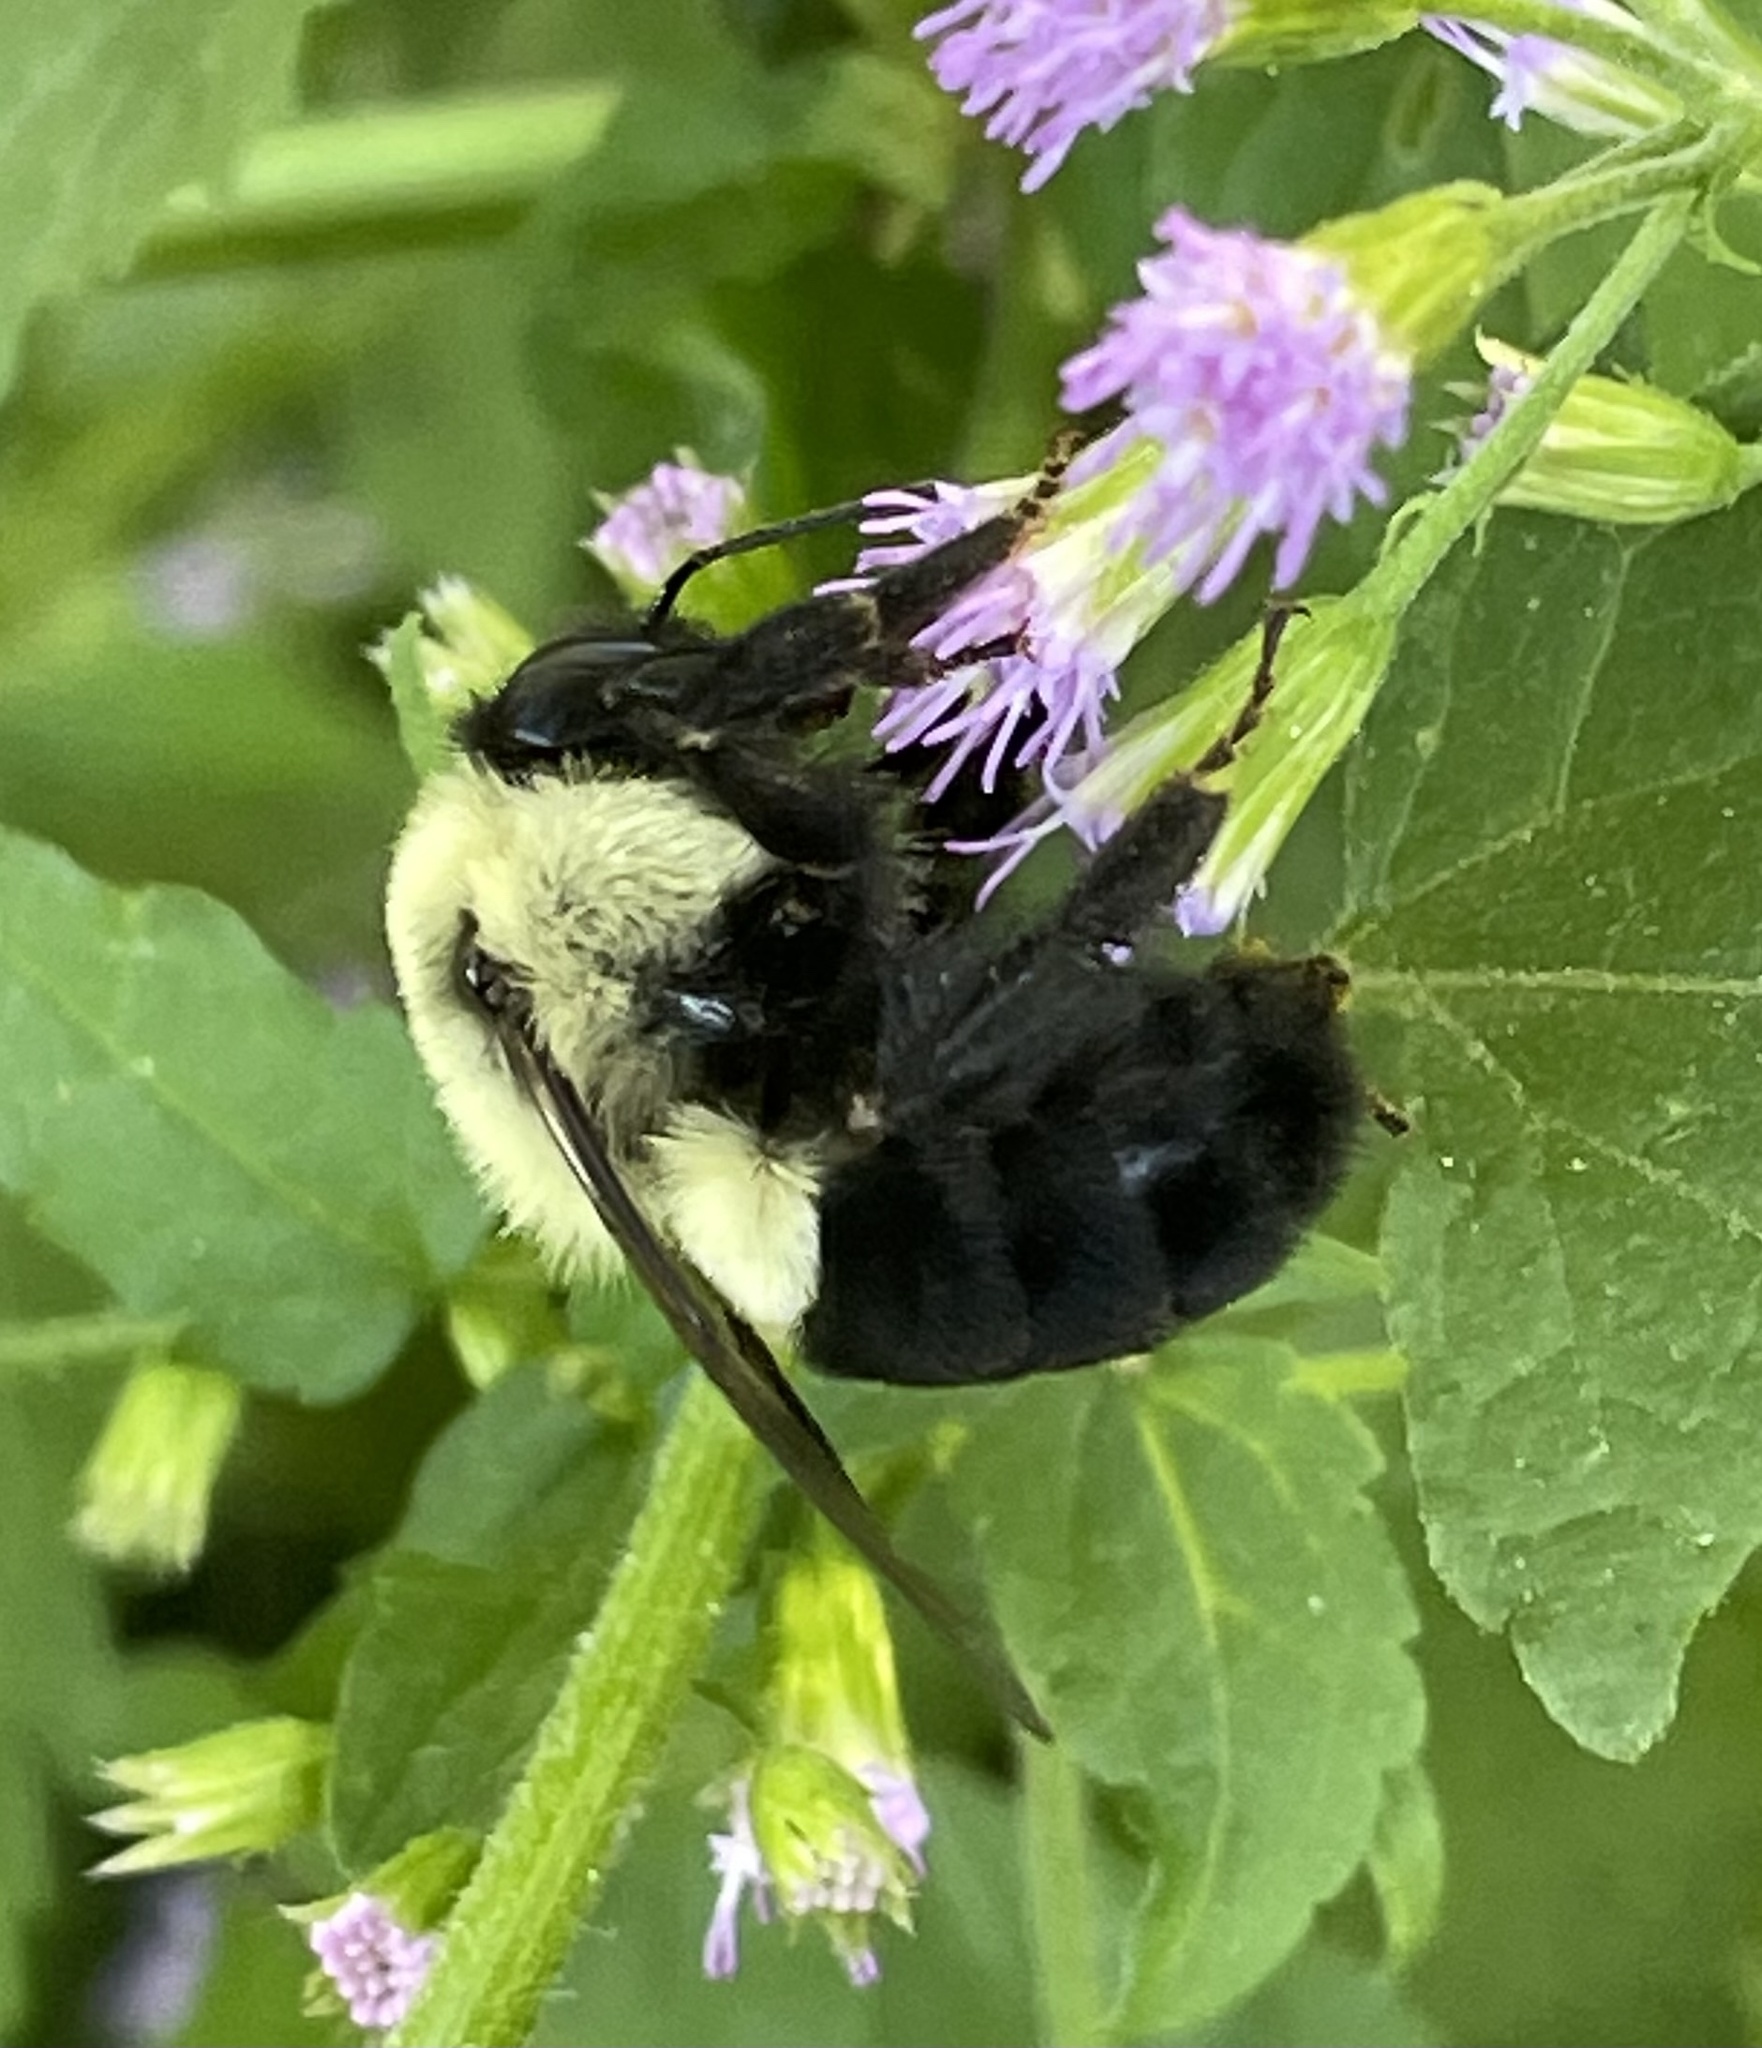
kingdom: Animalia
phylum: Arthropoda
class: Insecta
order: Hymenoptera
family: Apidae
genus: Bombus
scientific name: Bombus impatiens
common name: Common eastern bumble bee
